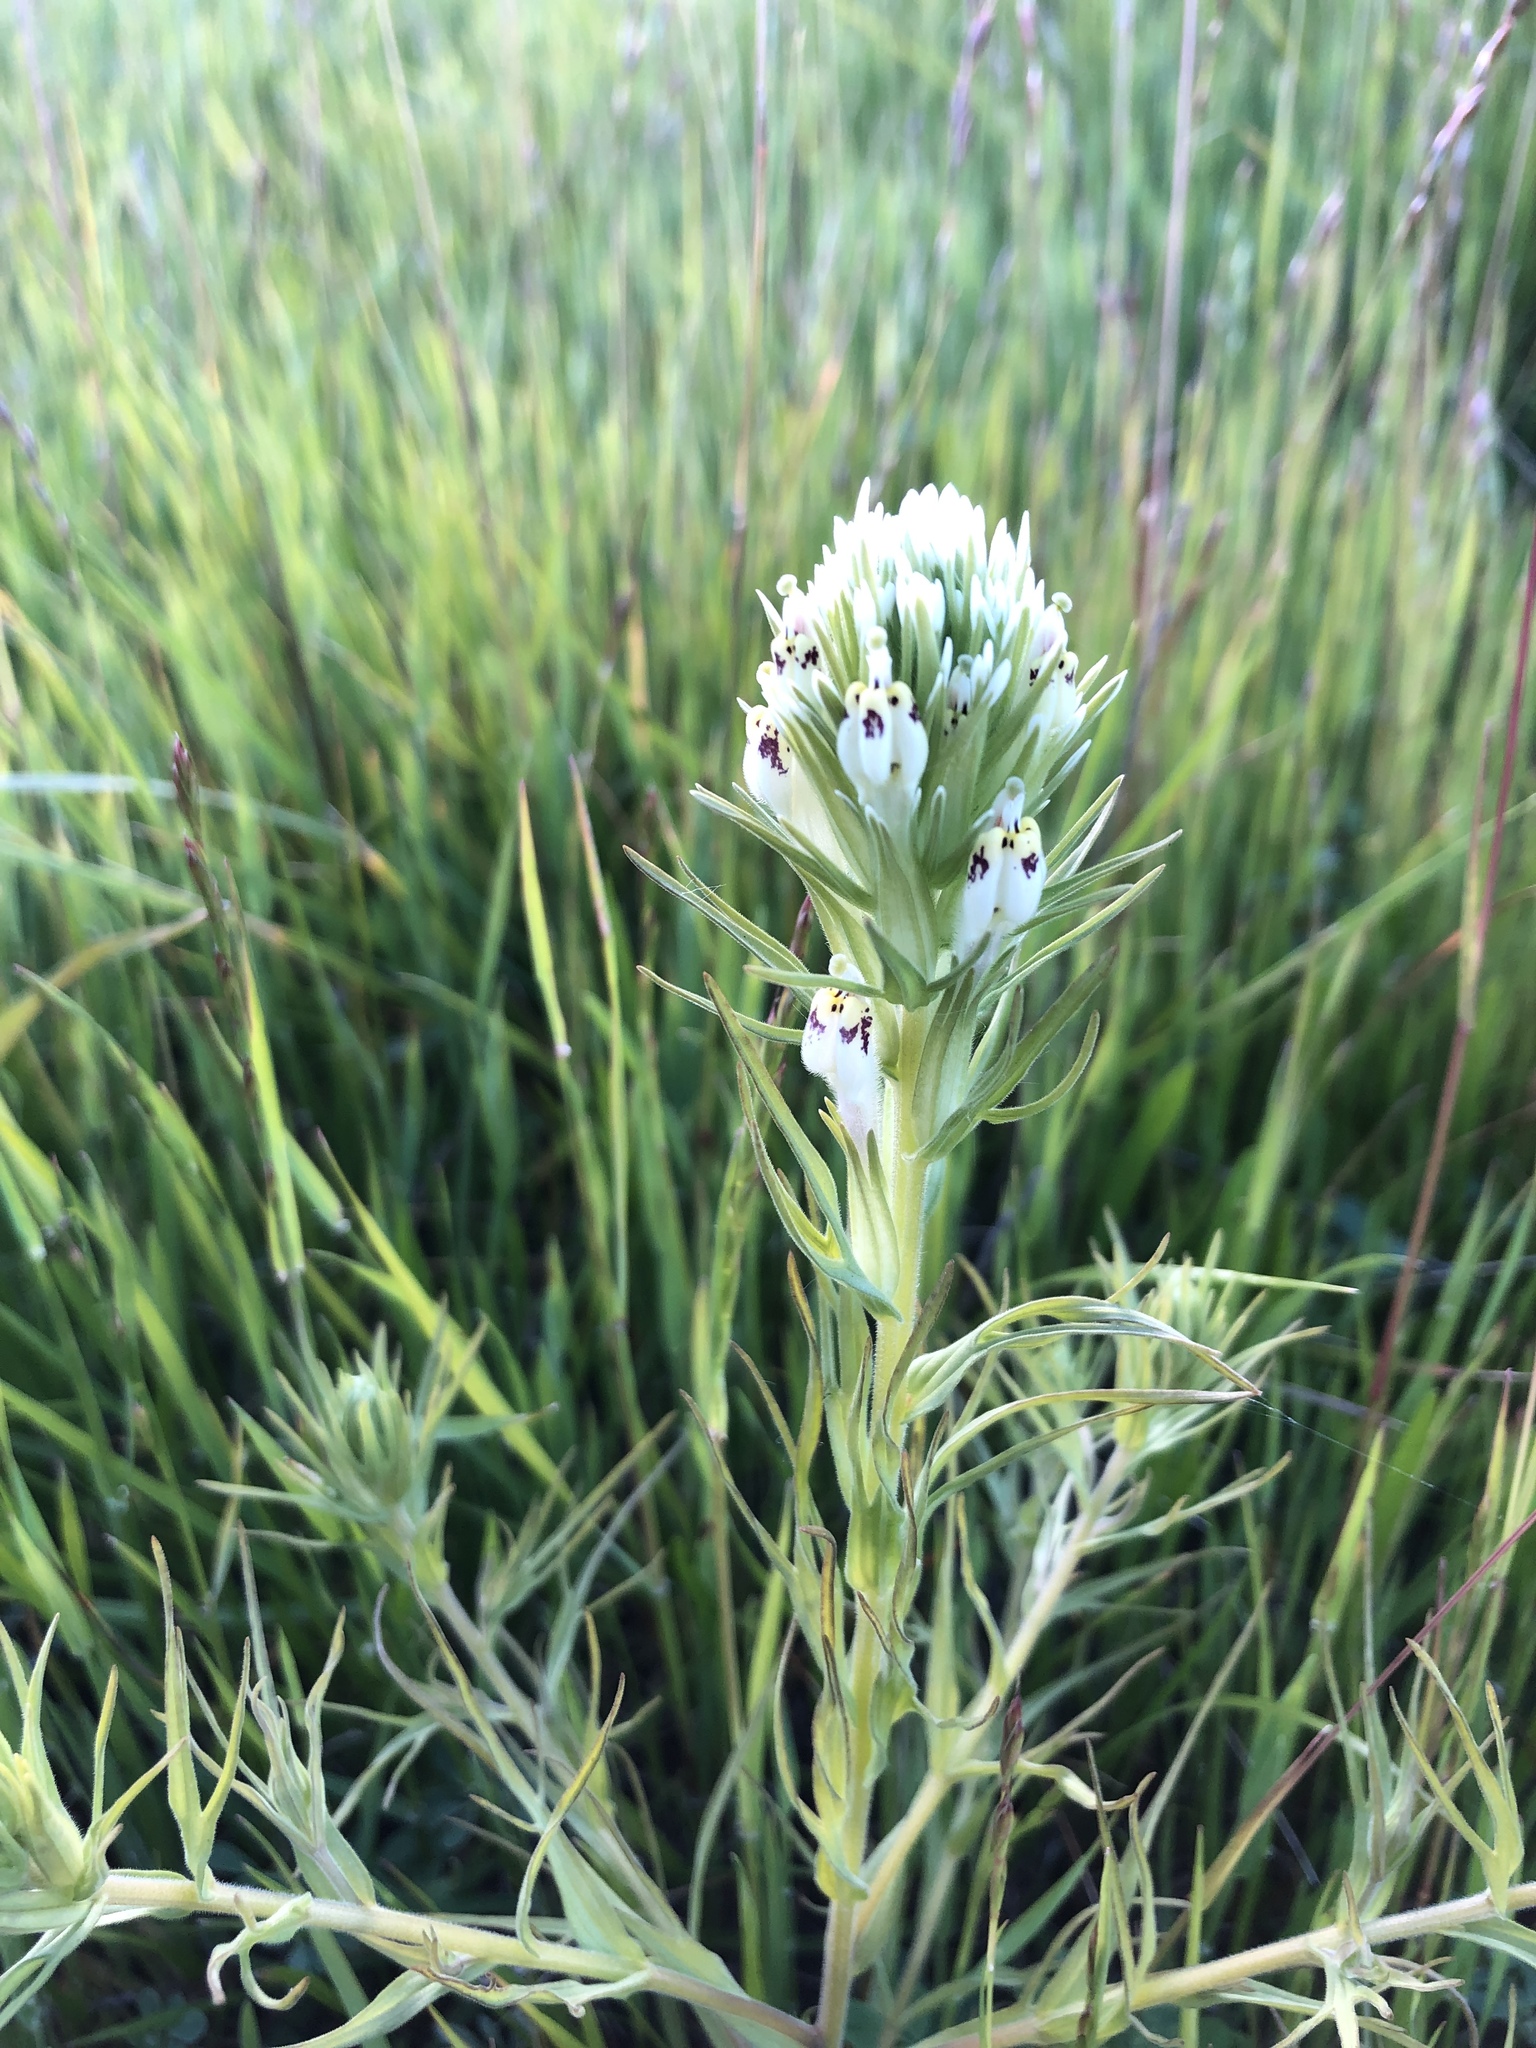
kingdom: Plantae
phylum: Tracheophyta
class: Magnoliopsida
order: Lamiales
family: Orobanchaceae
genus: Castilleja
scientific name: Castilleja densiflora
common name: Dense-flower indian paintbrush
